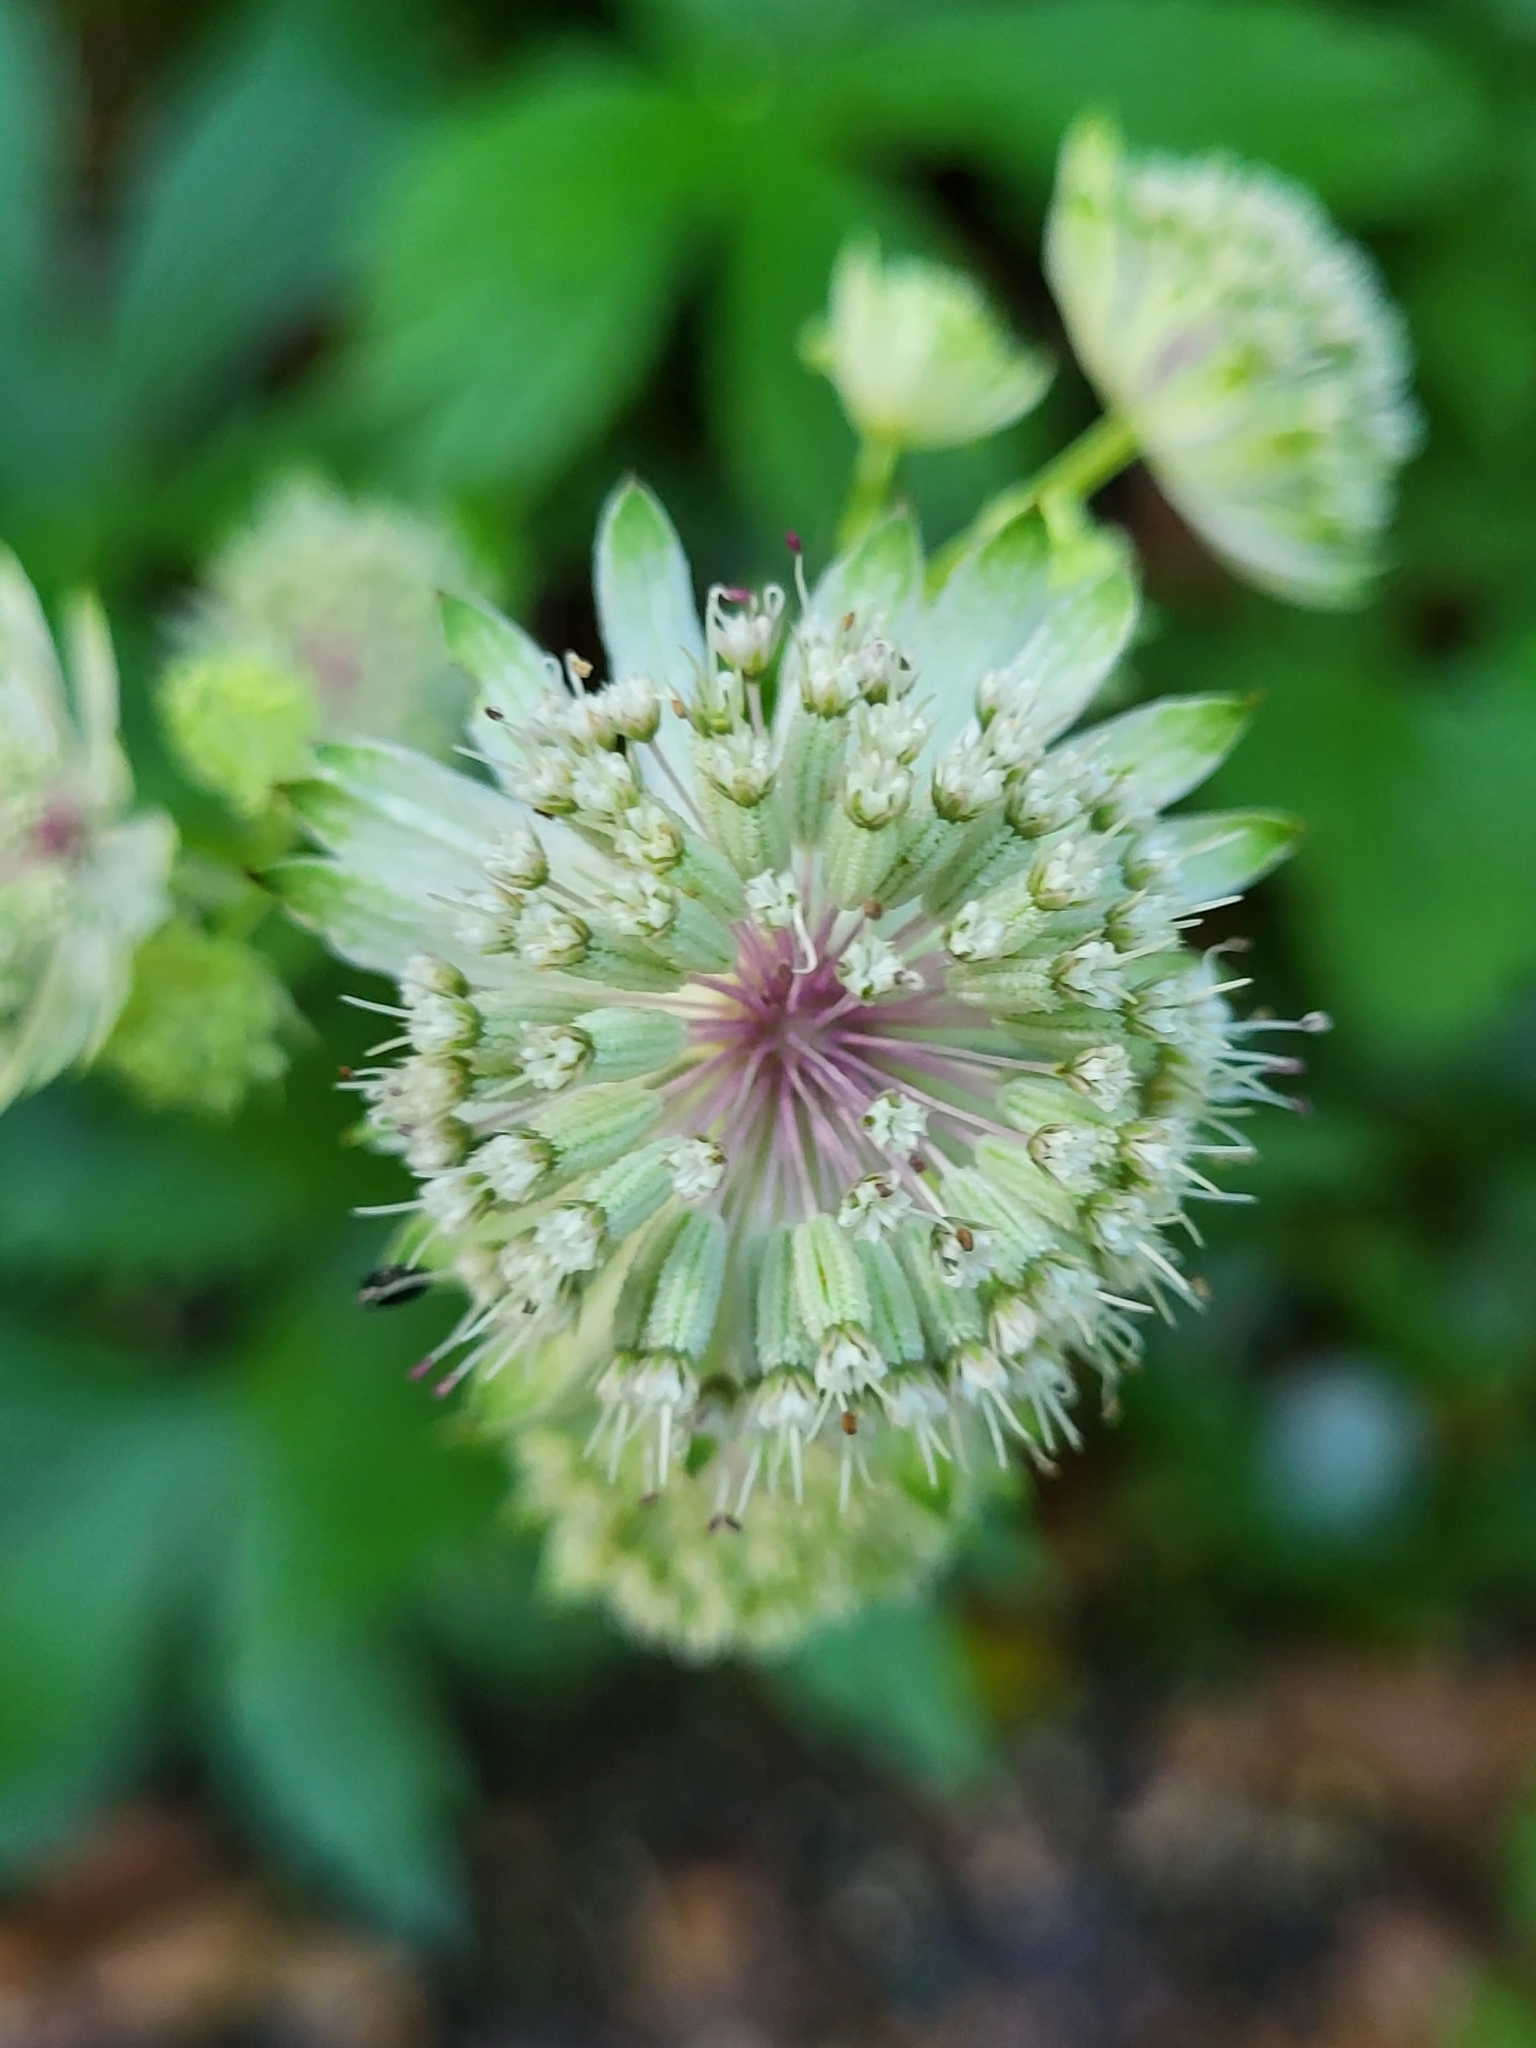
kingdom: Plantae
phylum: Tracheophyta
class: Magnoliopsida
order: Apiales
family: Apiaceae
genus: Astrantia
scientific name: Astrantia major
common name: Greater masterwort
